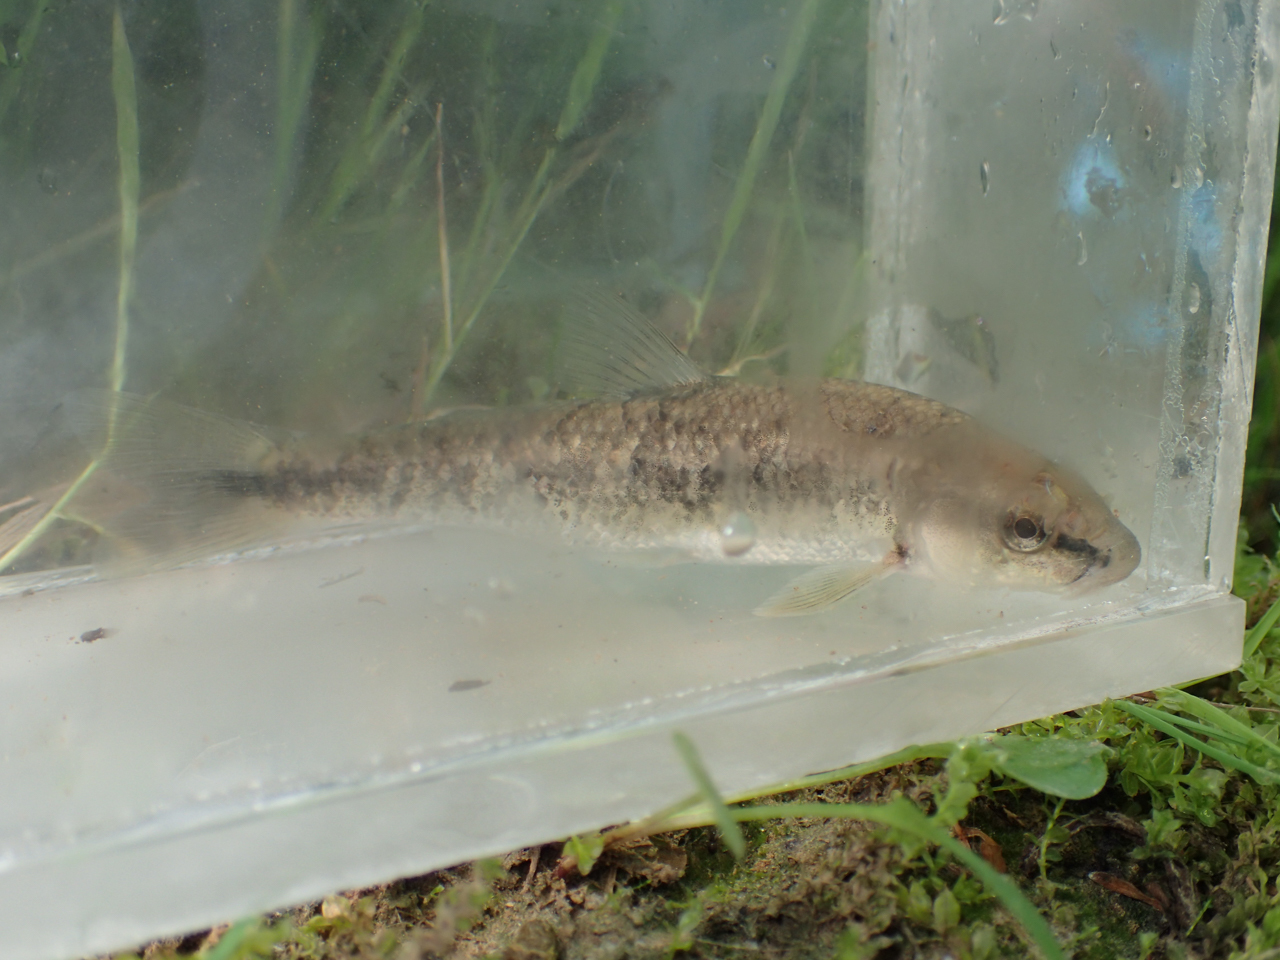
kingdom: Animalia
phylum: Chordata
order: Cypriniformes
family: Cyprinidae
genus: Campostoma
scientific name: Campostoma oligolepis
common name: Largescale stoneroller
